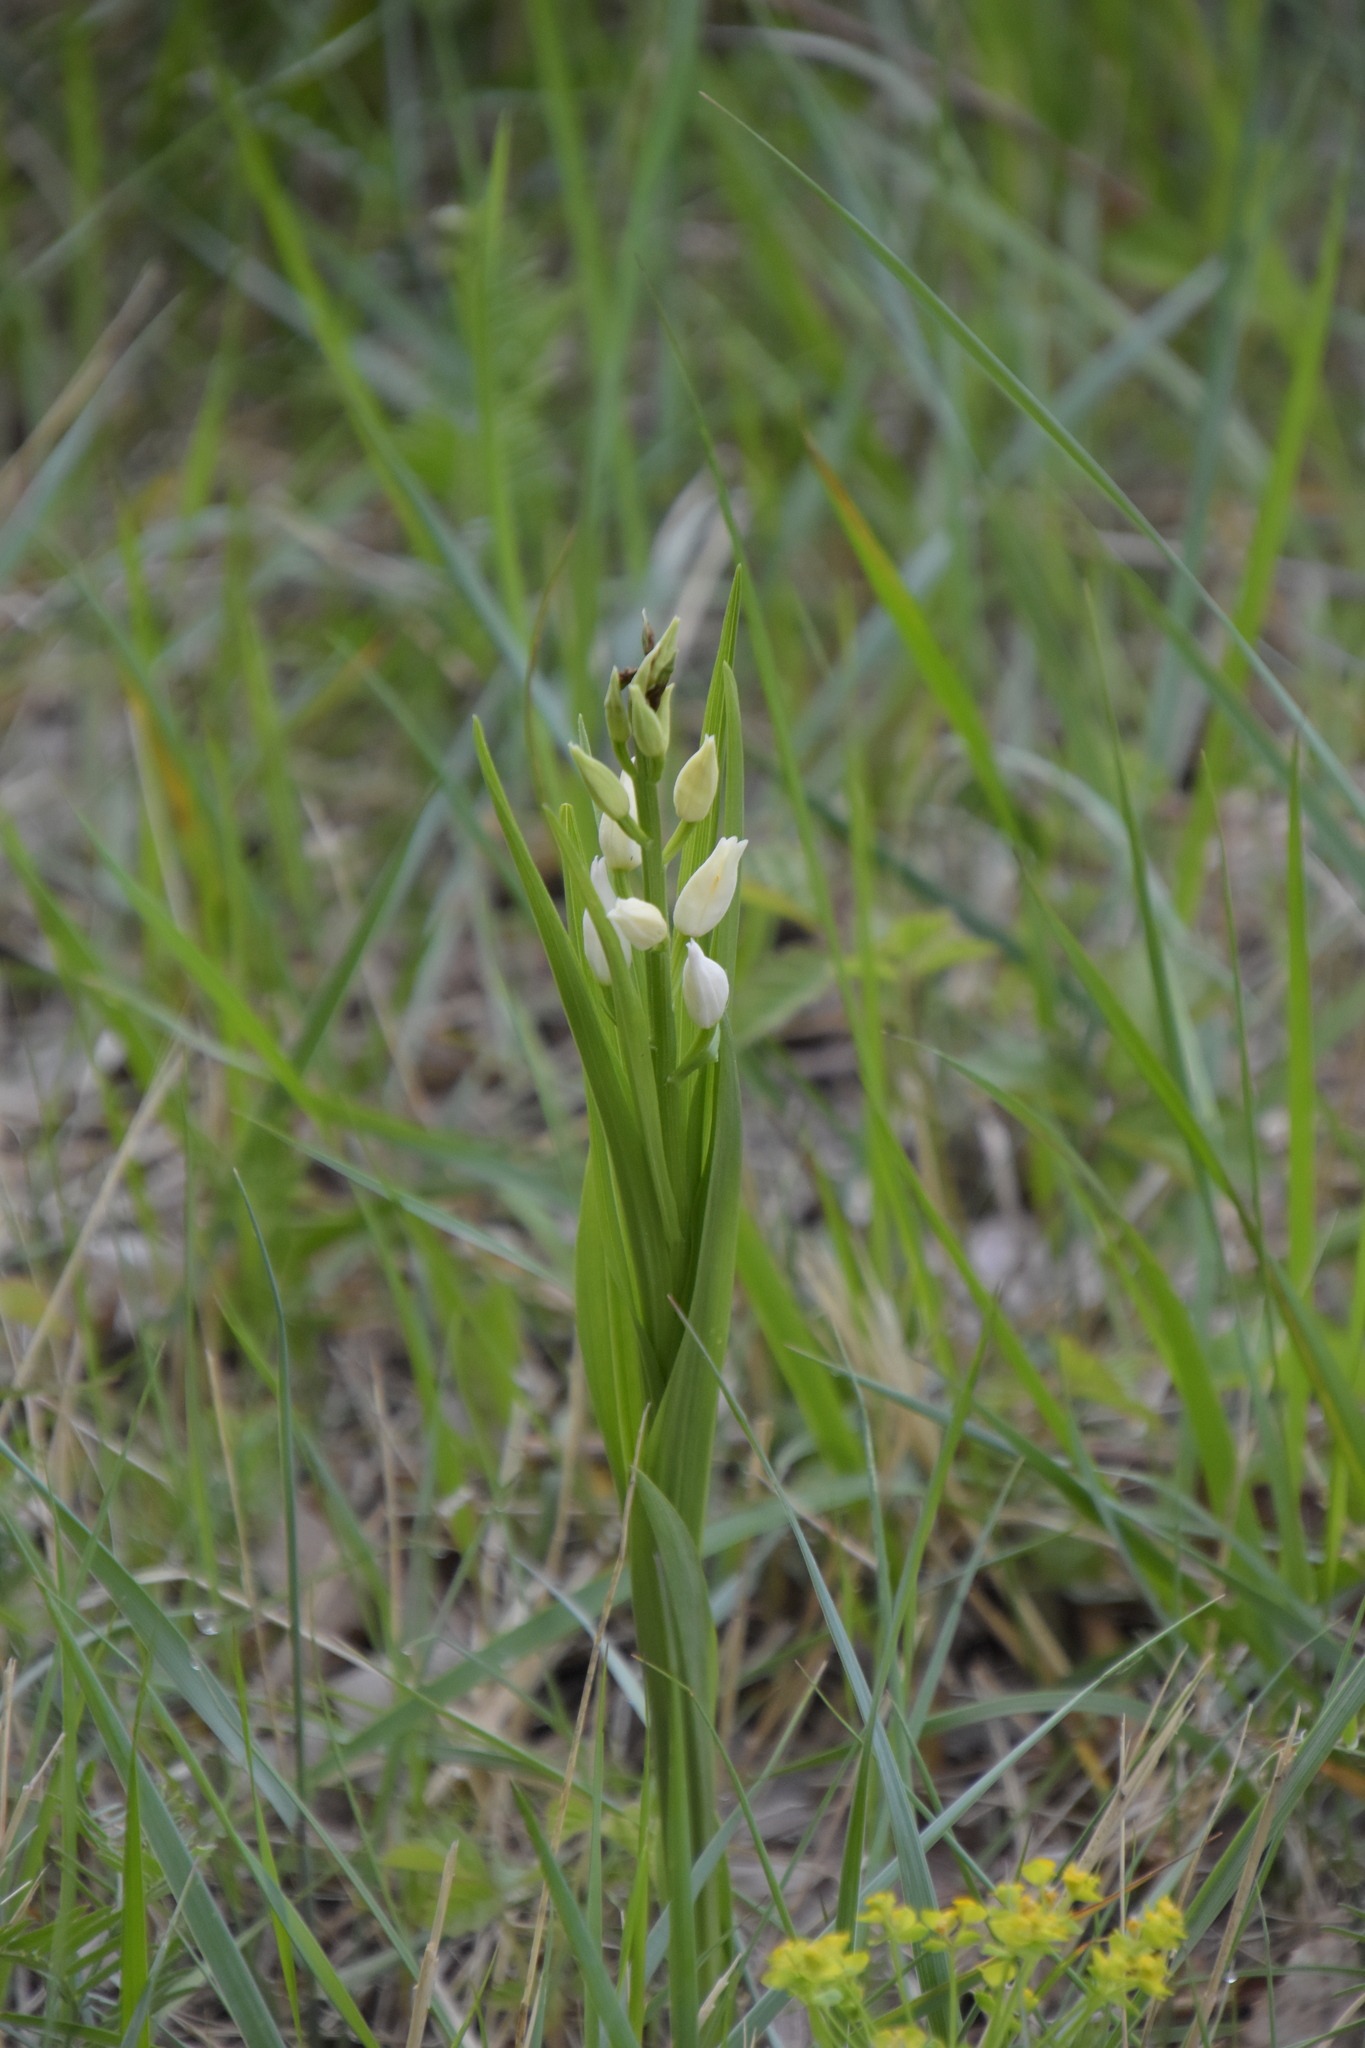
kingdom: Plantae
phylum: Tracheophyta
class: Liliopsida
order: Asparagales
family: Orchidaceae
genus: Cephalanthera
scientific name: Cephalanthera longifolia
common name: Narrow-leaved helleborine
